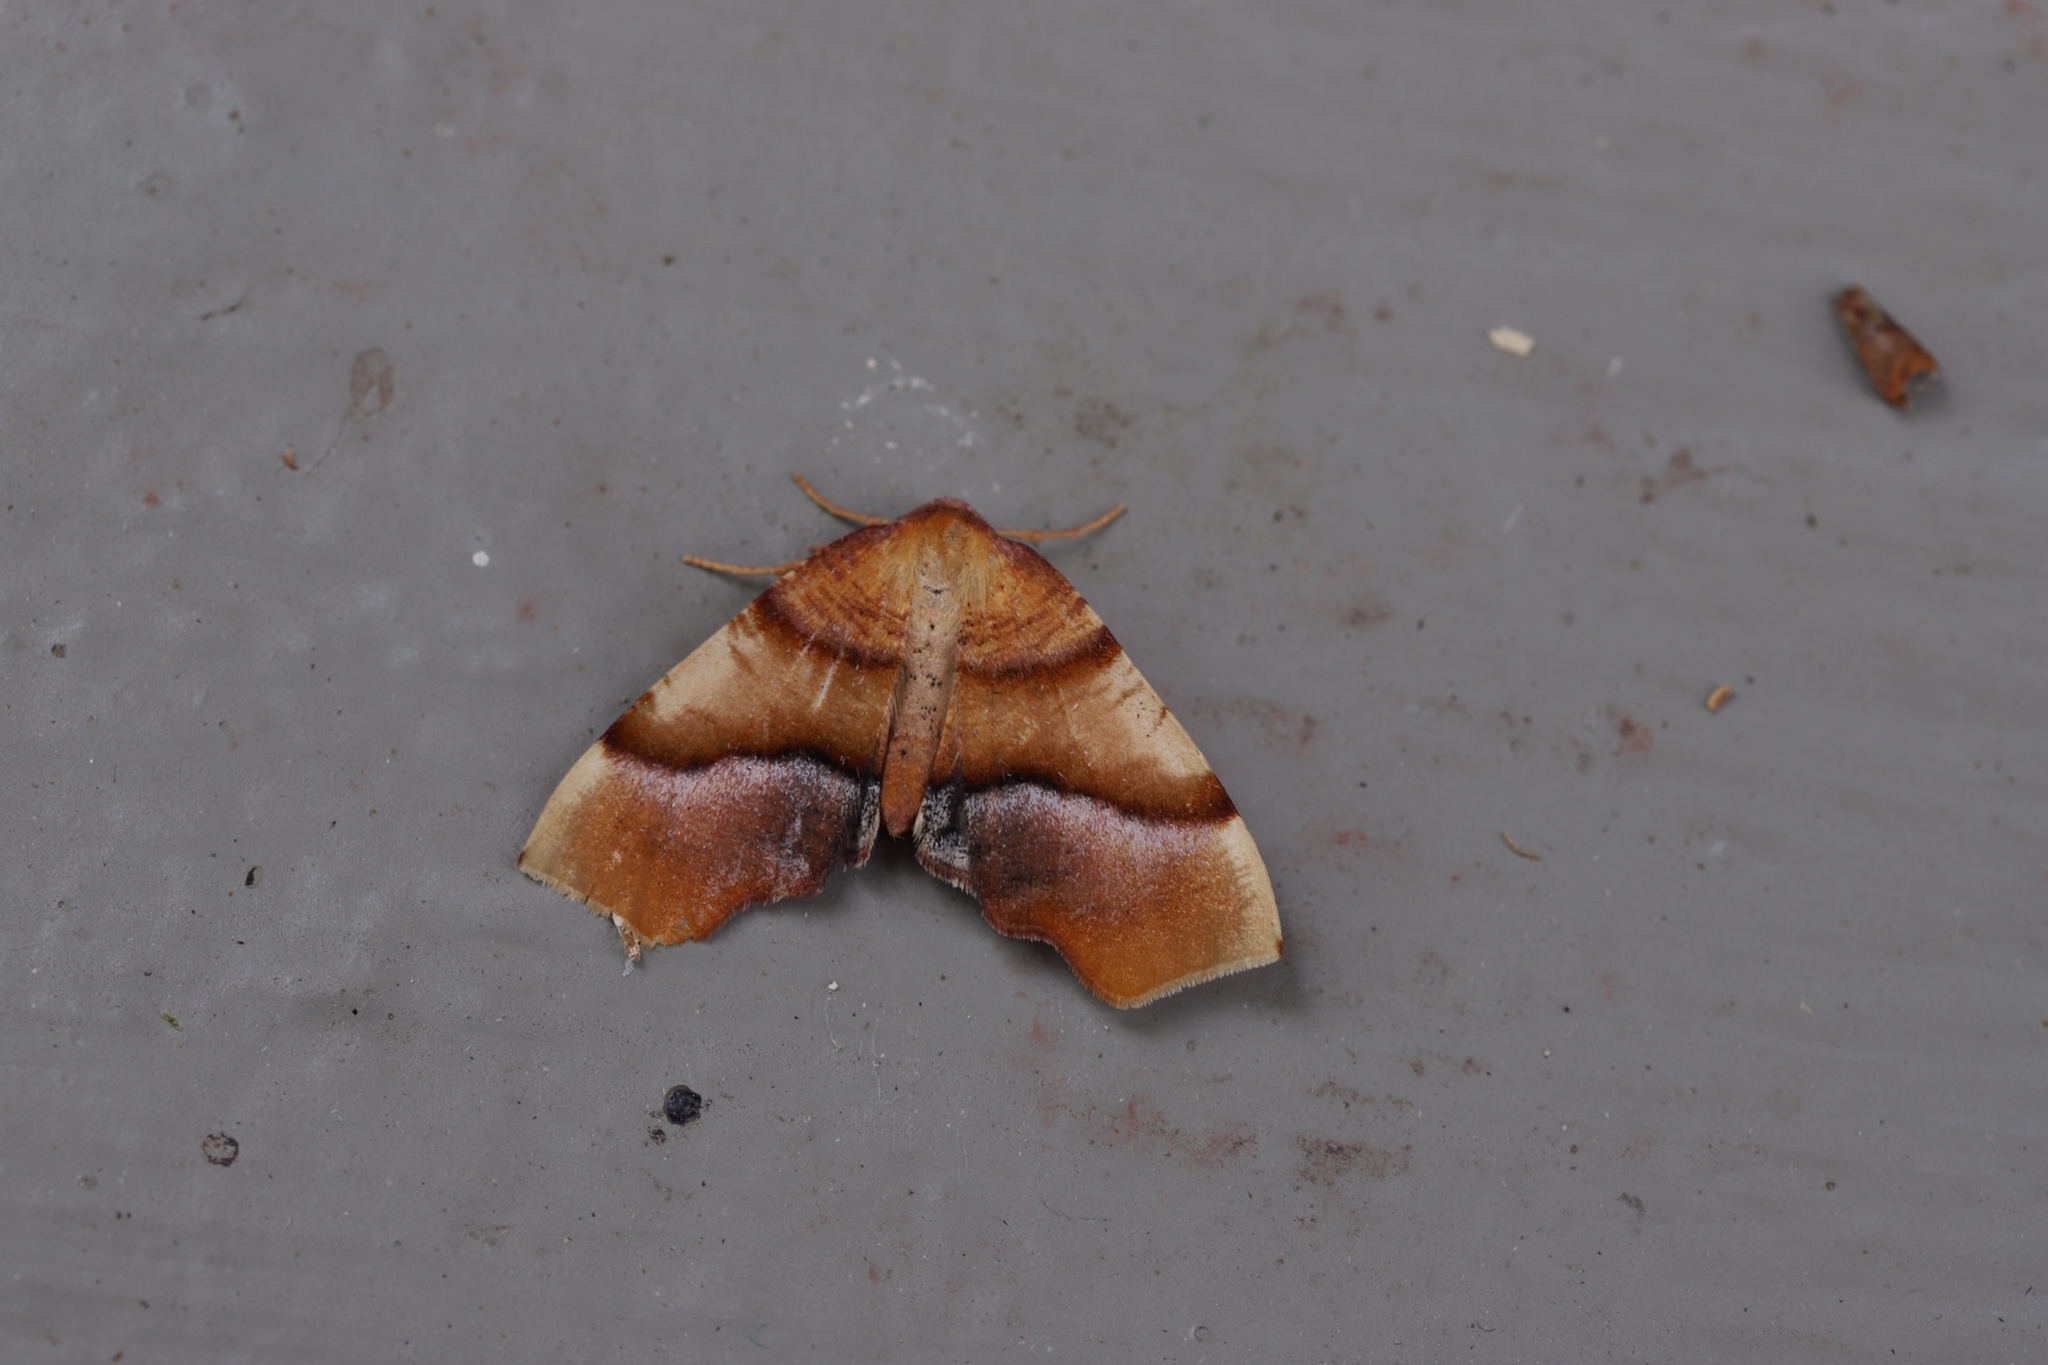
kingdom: Animalia
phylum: Arthropoda
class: Insecta
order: Lepidoptera
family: Geometridae
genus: Plagodis
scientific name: Plagodis phlogosaria
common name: Straight-lined plagodis
